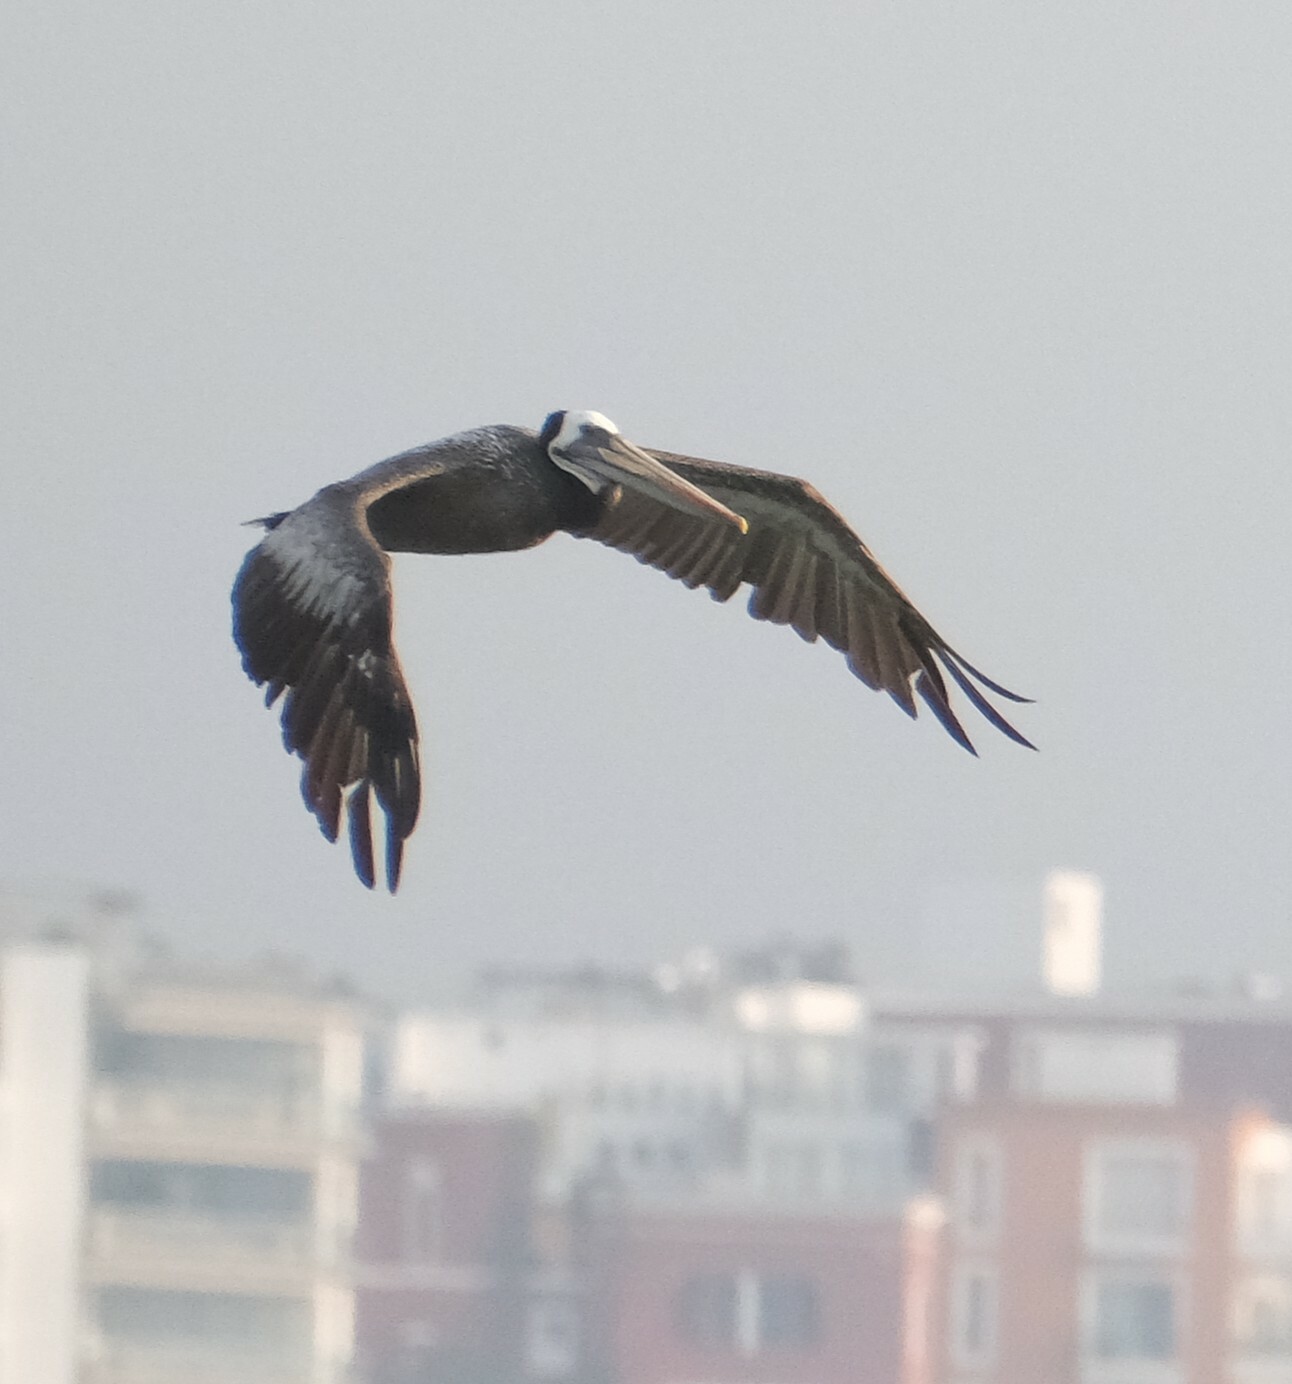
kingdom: Animalia
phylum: Chordata
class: Aves
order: Pelecaniformes
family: Pelecanidae
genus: Pelecanus
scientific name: Pelecanus thagus
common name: Peruvian pelican
